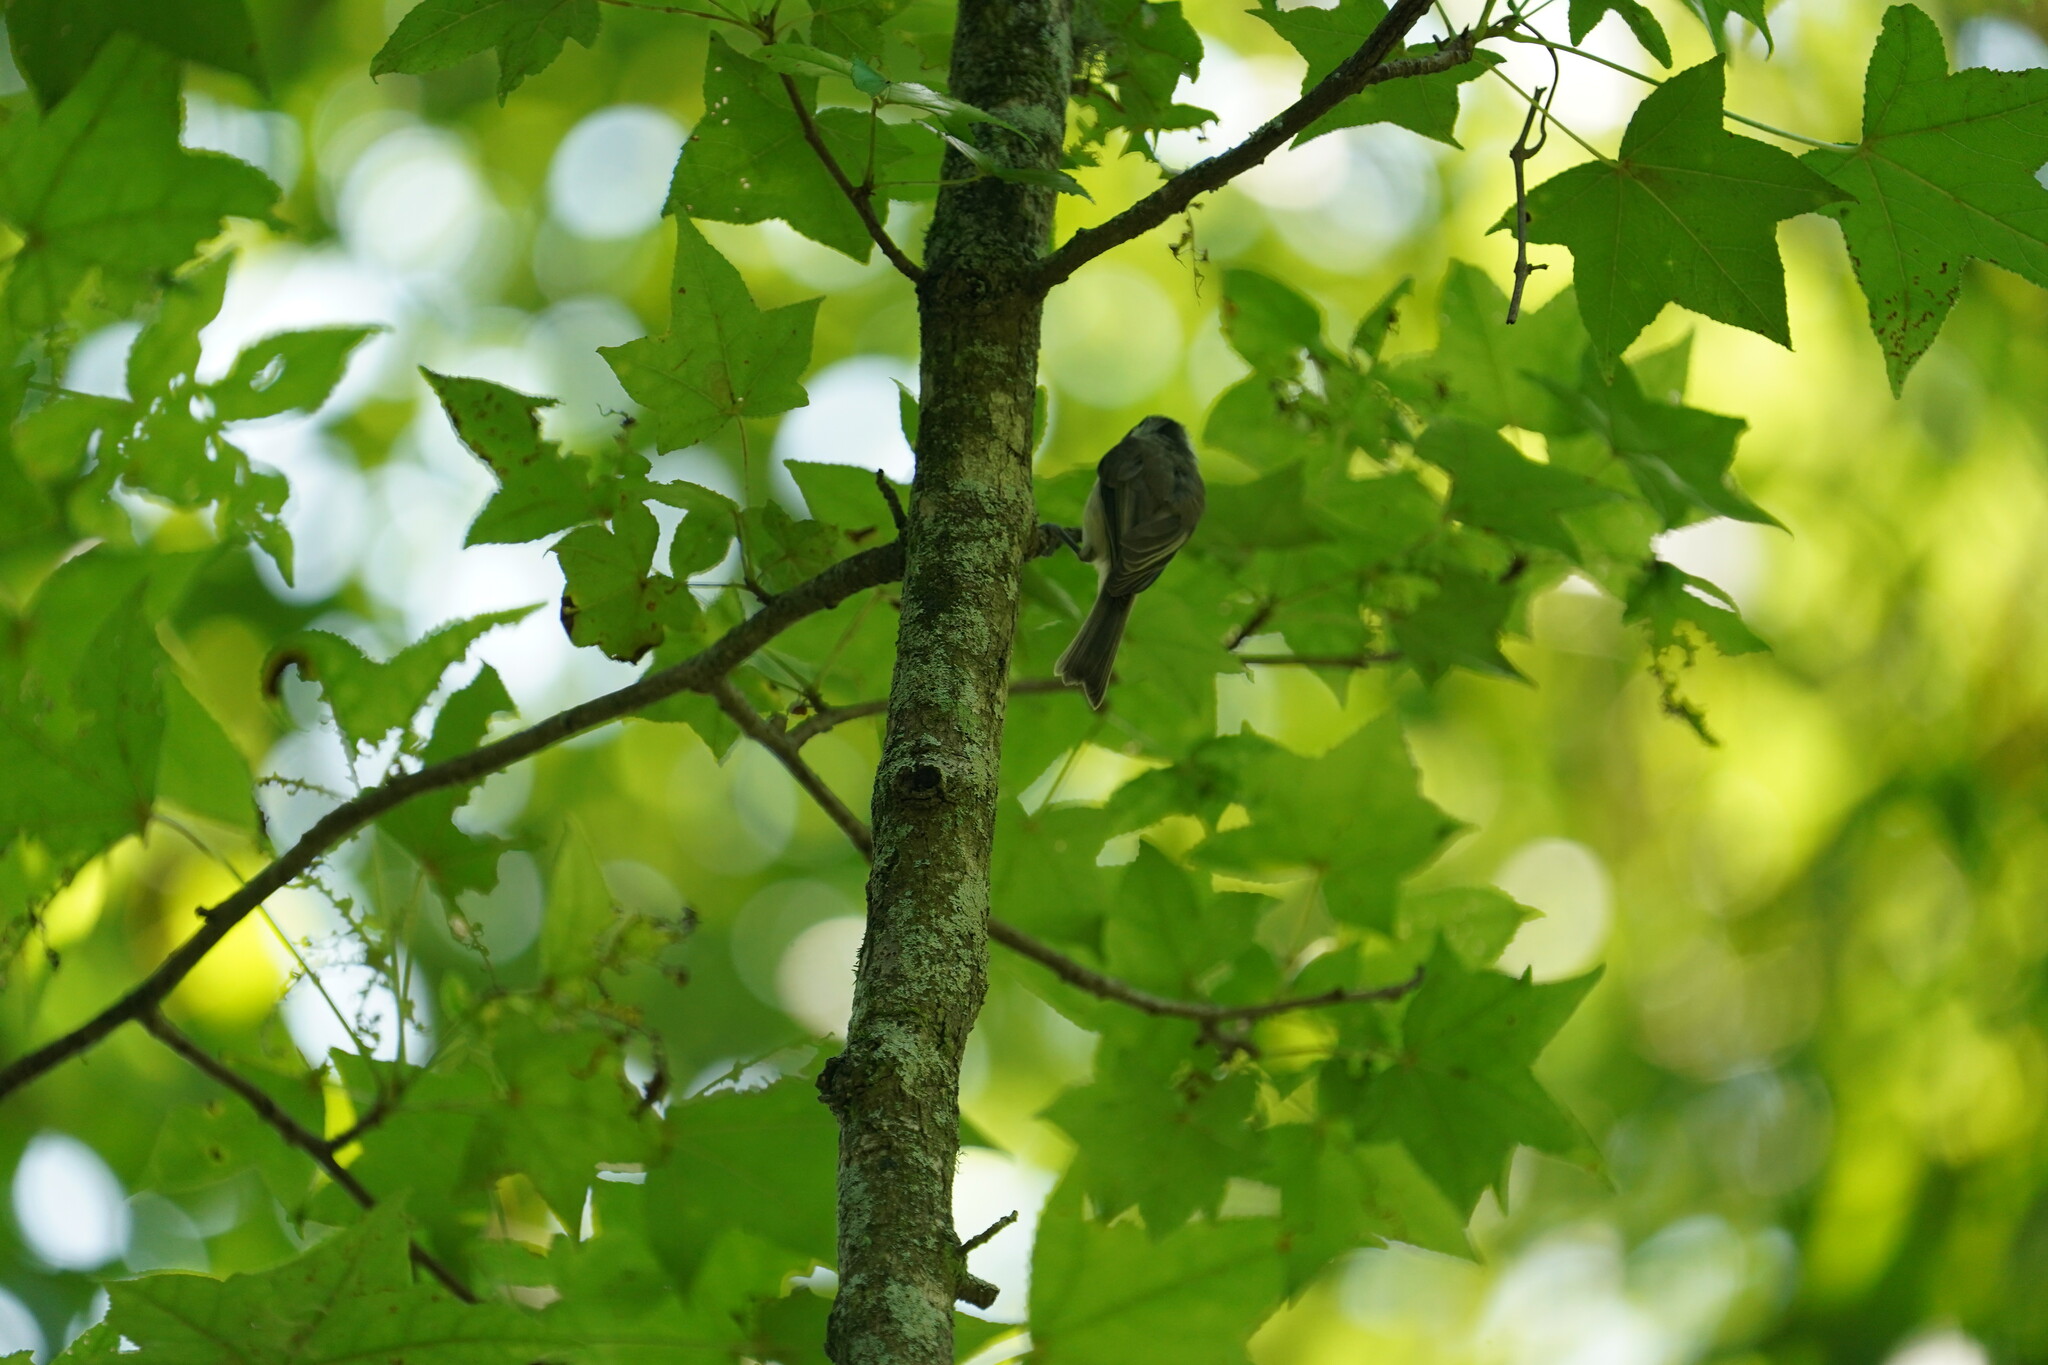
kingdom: Animalia
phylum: Chordata
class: Aves
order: Passeriformes
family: Paridae
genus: Poecile
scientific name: Poecile carolinensis
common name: Carolina chickadee
